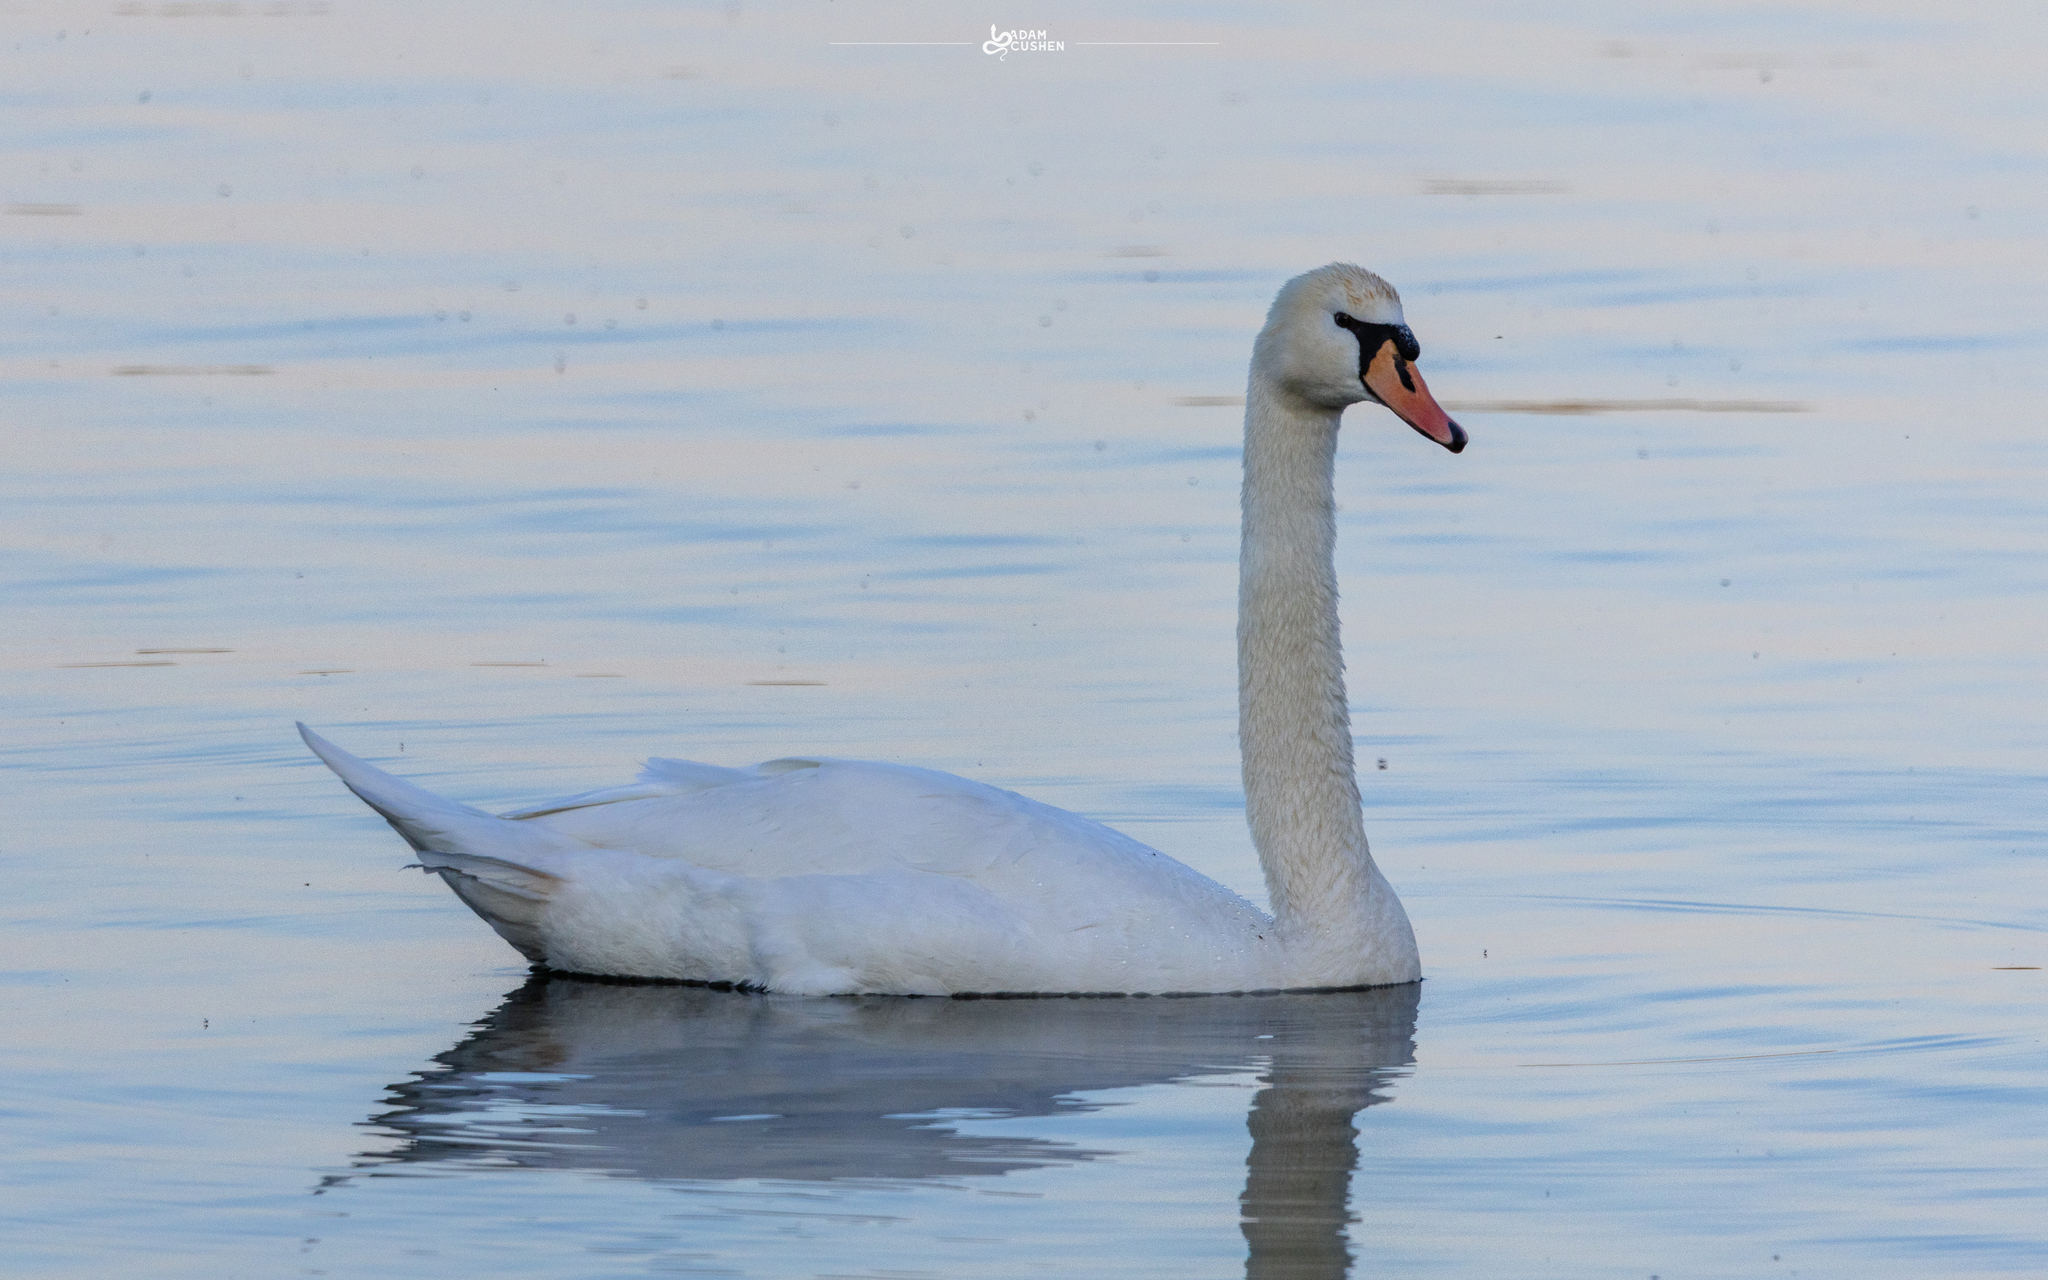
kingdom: Animalia
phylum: Chordata
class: Aves
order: Anseriformes
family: Anatidae
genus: Cygnus
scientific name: Cygnus olor
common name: Mute swan
